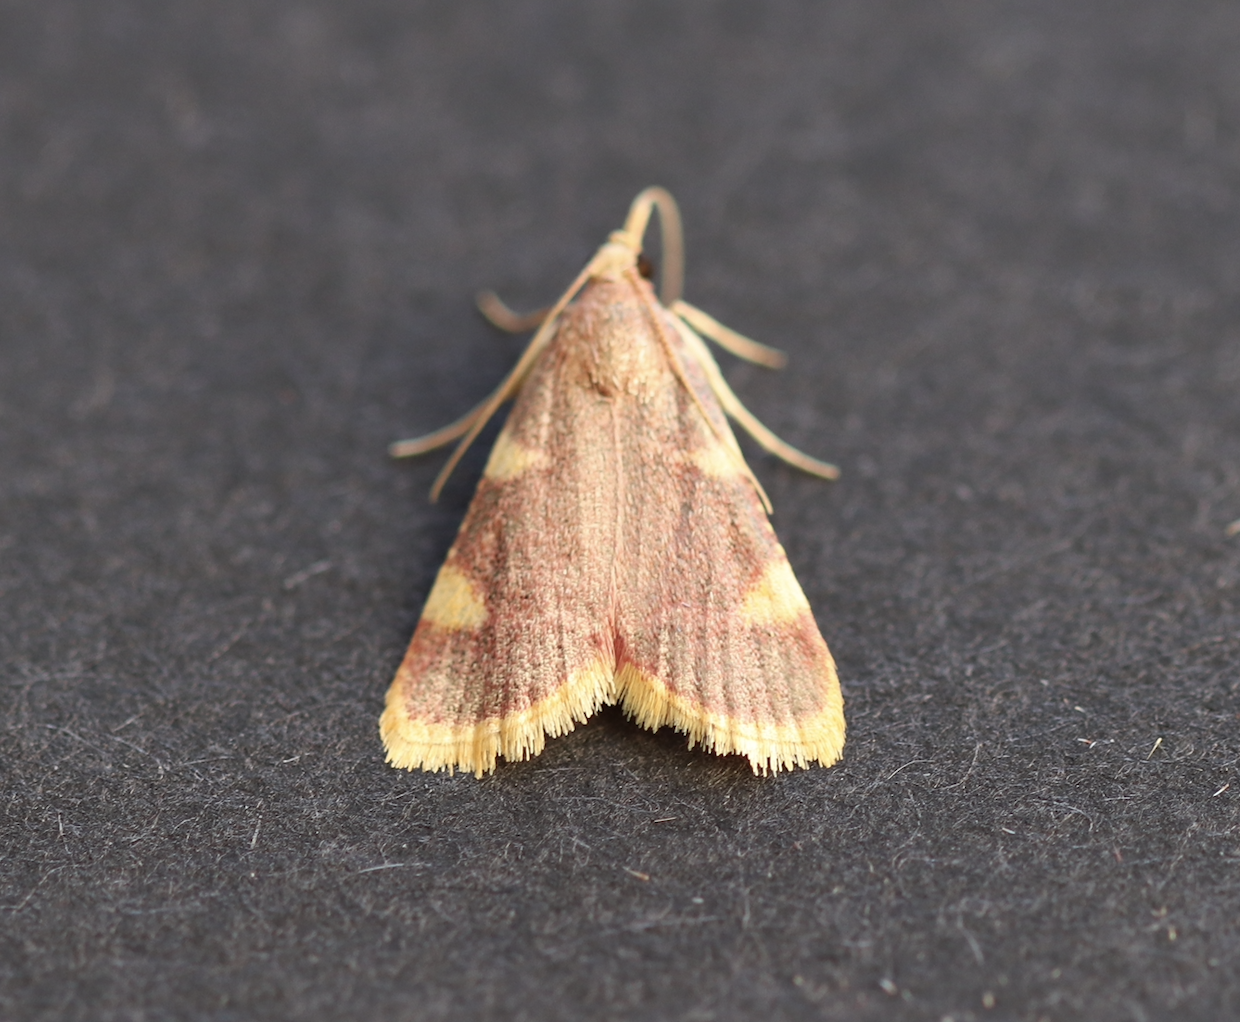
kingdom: Animalia
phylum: Arthropoda
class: Insecta
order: Lepidoptera
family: Pyralidae
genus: Hypsopygia
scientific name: Hypsopygia costalis
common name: Gold triangle
